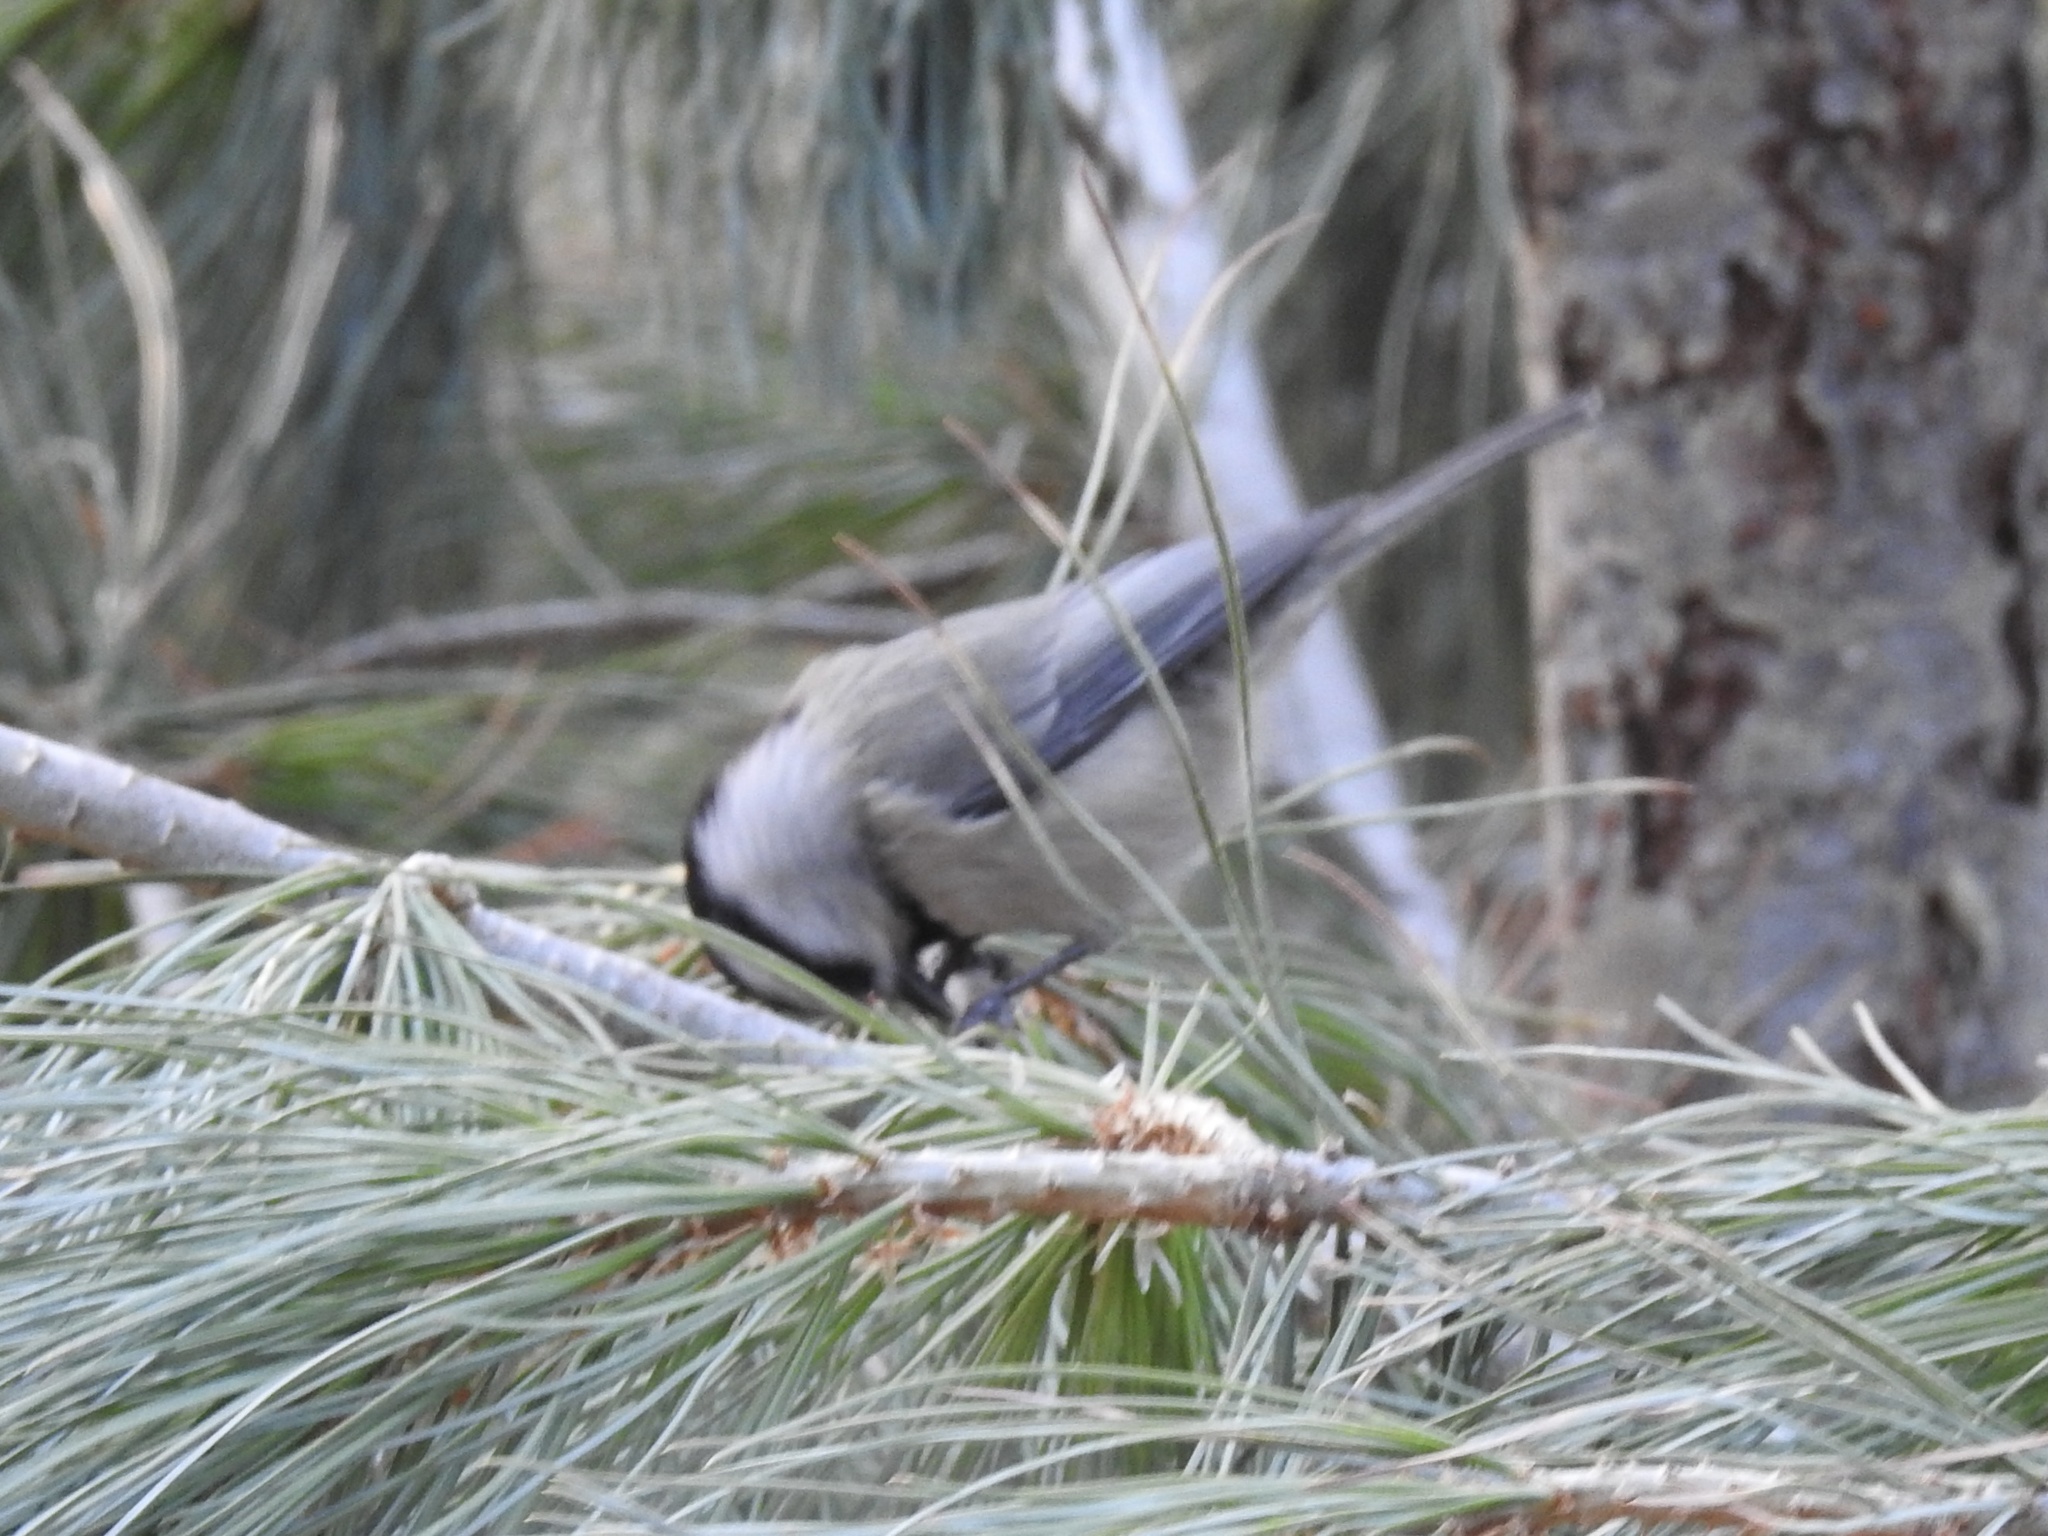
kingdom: Animalia
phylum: Chordata
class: Aves
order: Passeriformes
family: Paridae
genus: Poecile
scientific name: Poecile gambeli
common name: Mountain chickadee
